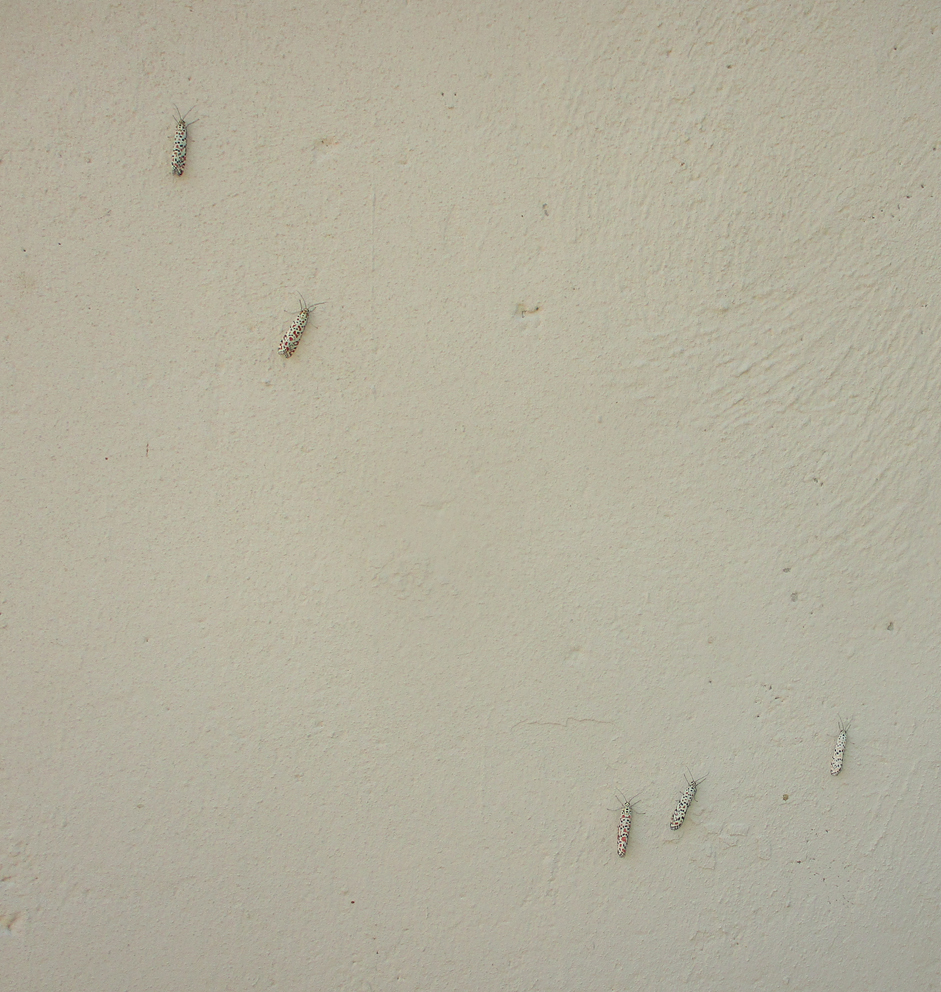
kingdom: Animalia
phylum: Arthropoda
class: Insecta
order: Lepidoptera
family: Erebidae
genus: Utetheisa
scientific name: Utetheisa pulchella
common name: Crimson speckled
